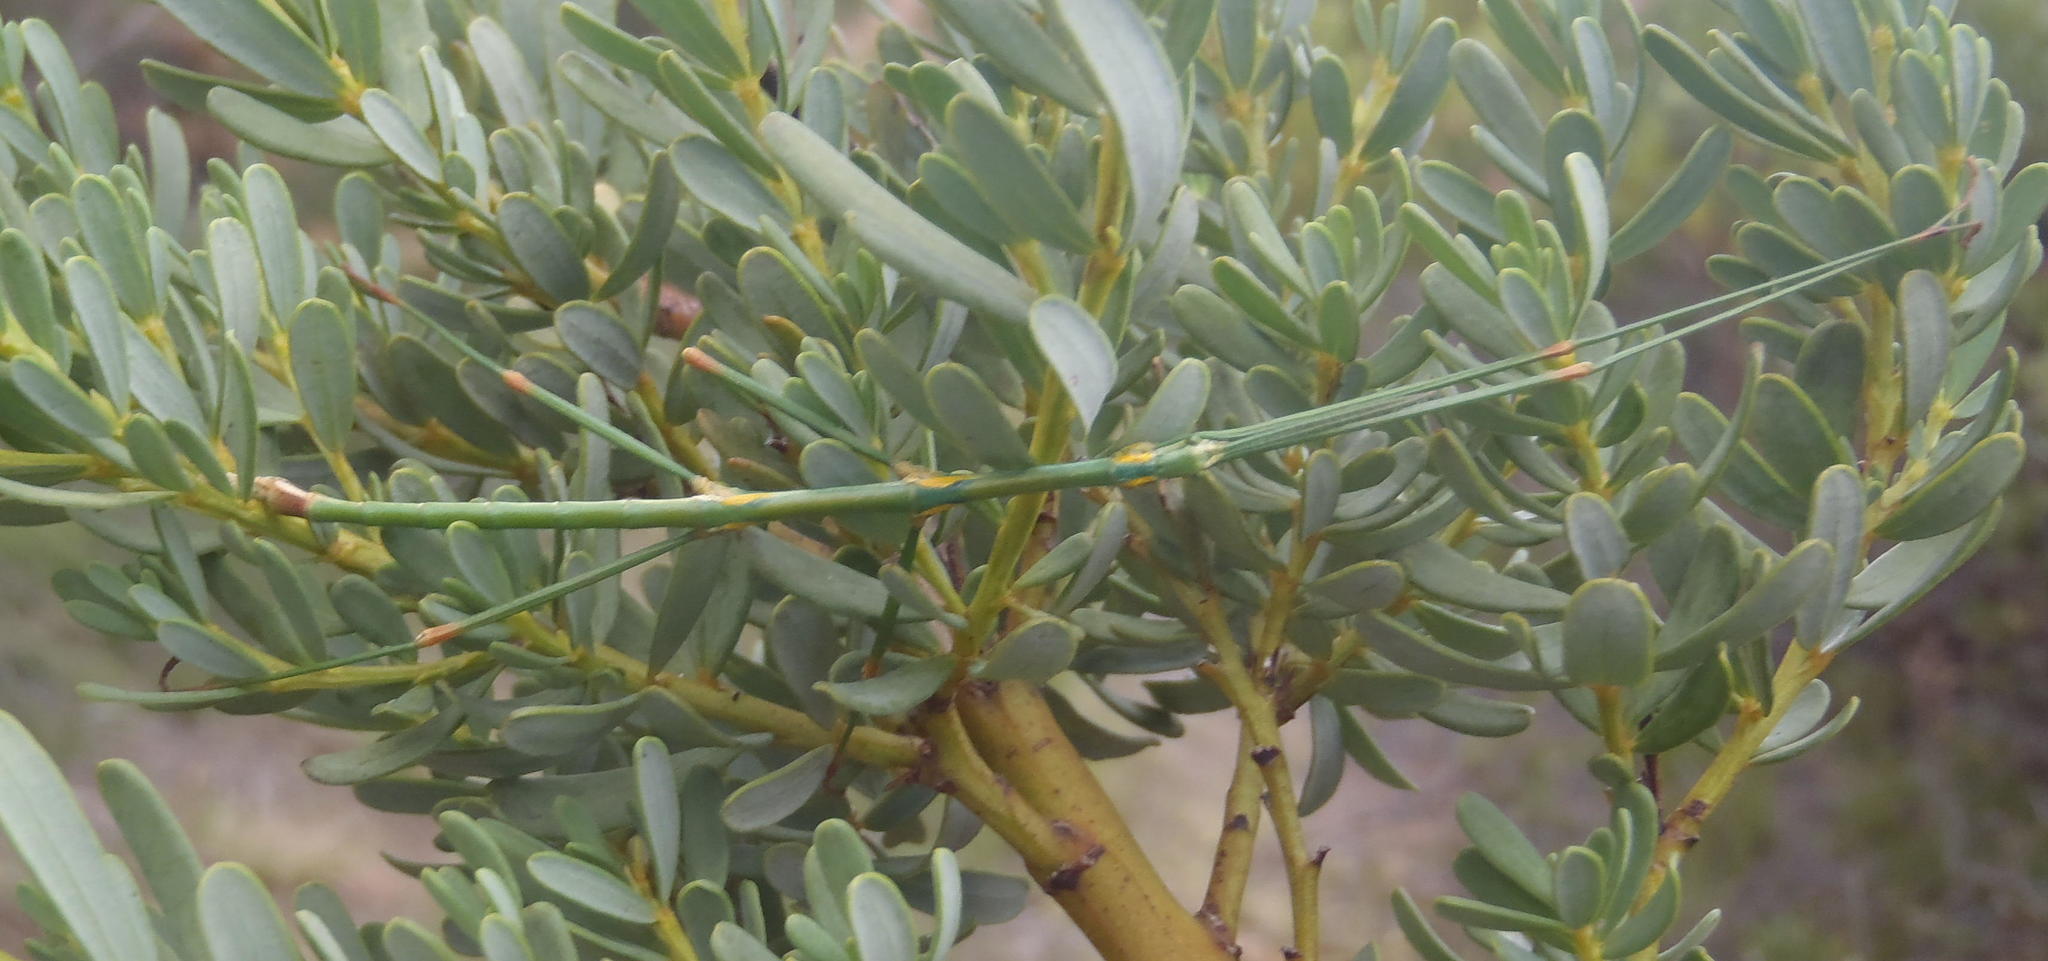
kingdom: Animalia
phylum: Arthropoda
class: Insecta
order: Phasmida
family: Bacillidae
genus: Phalces
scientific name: Phalces brevis
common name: Cape stick insect
